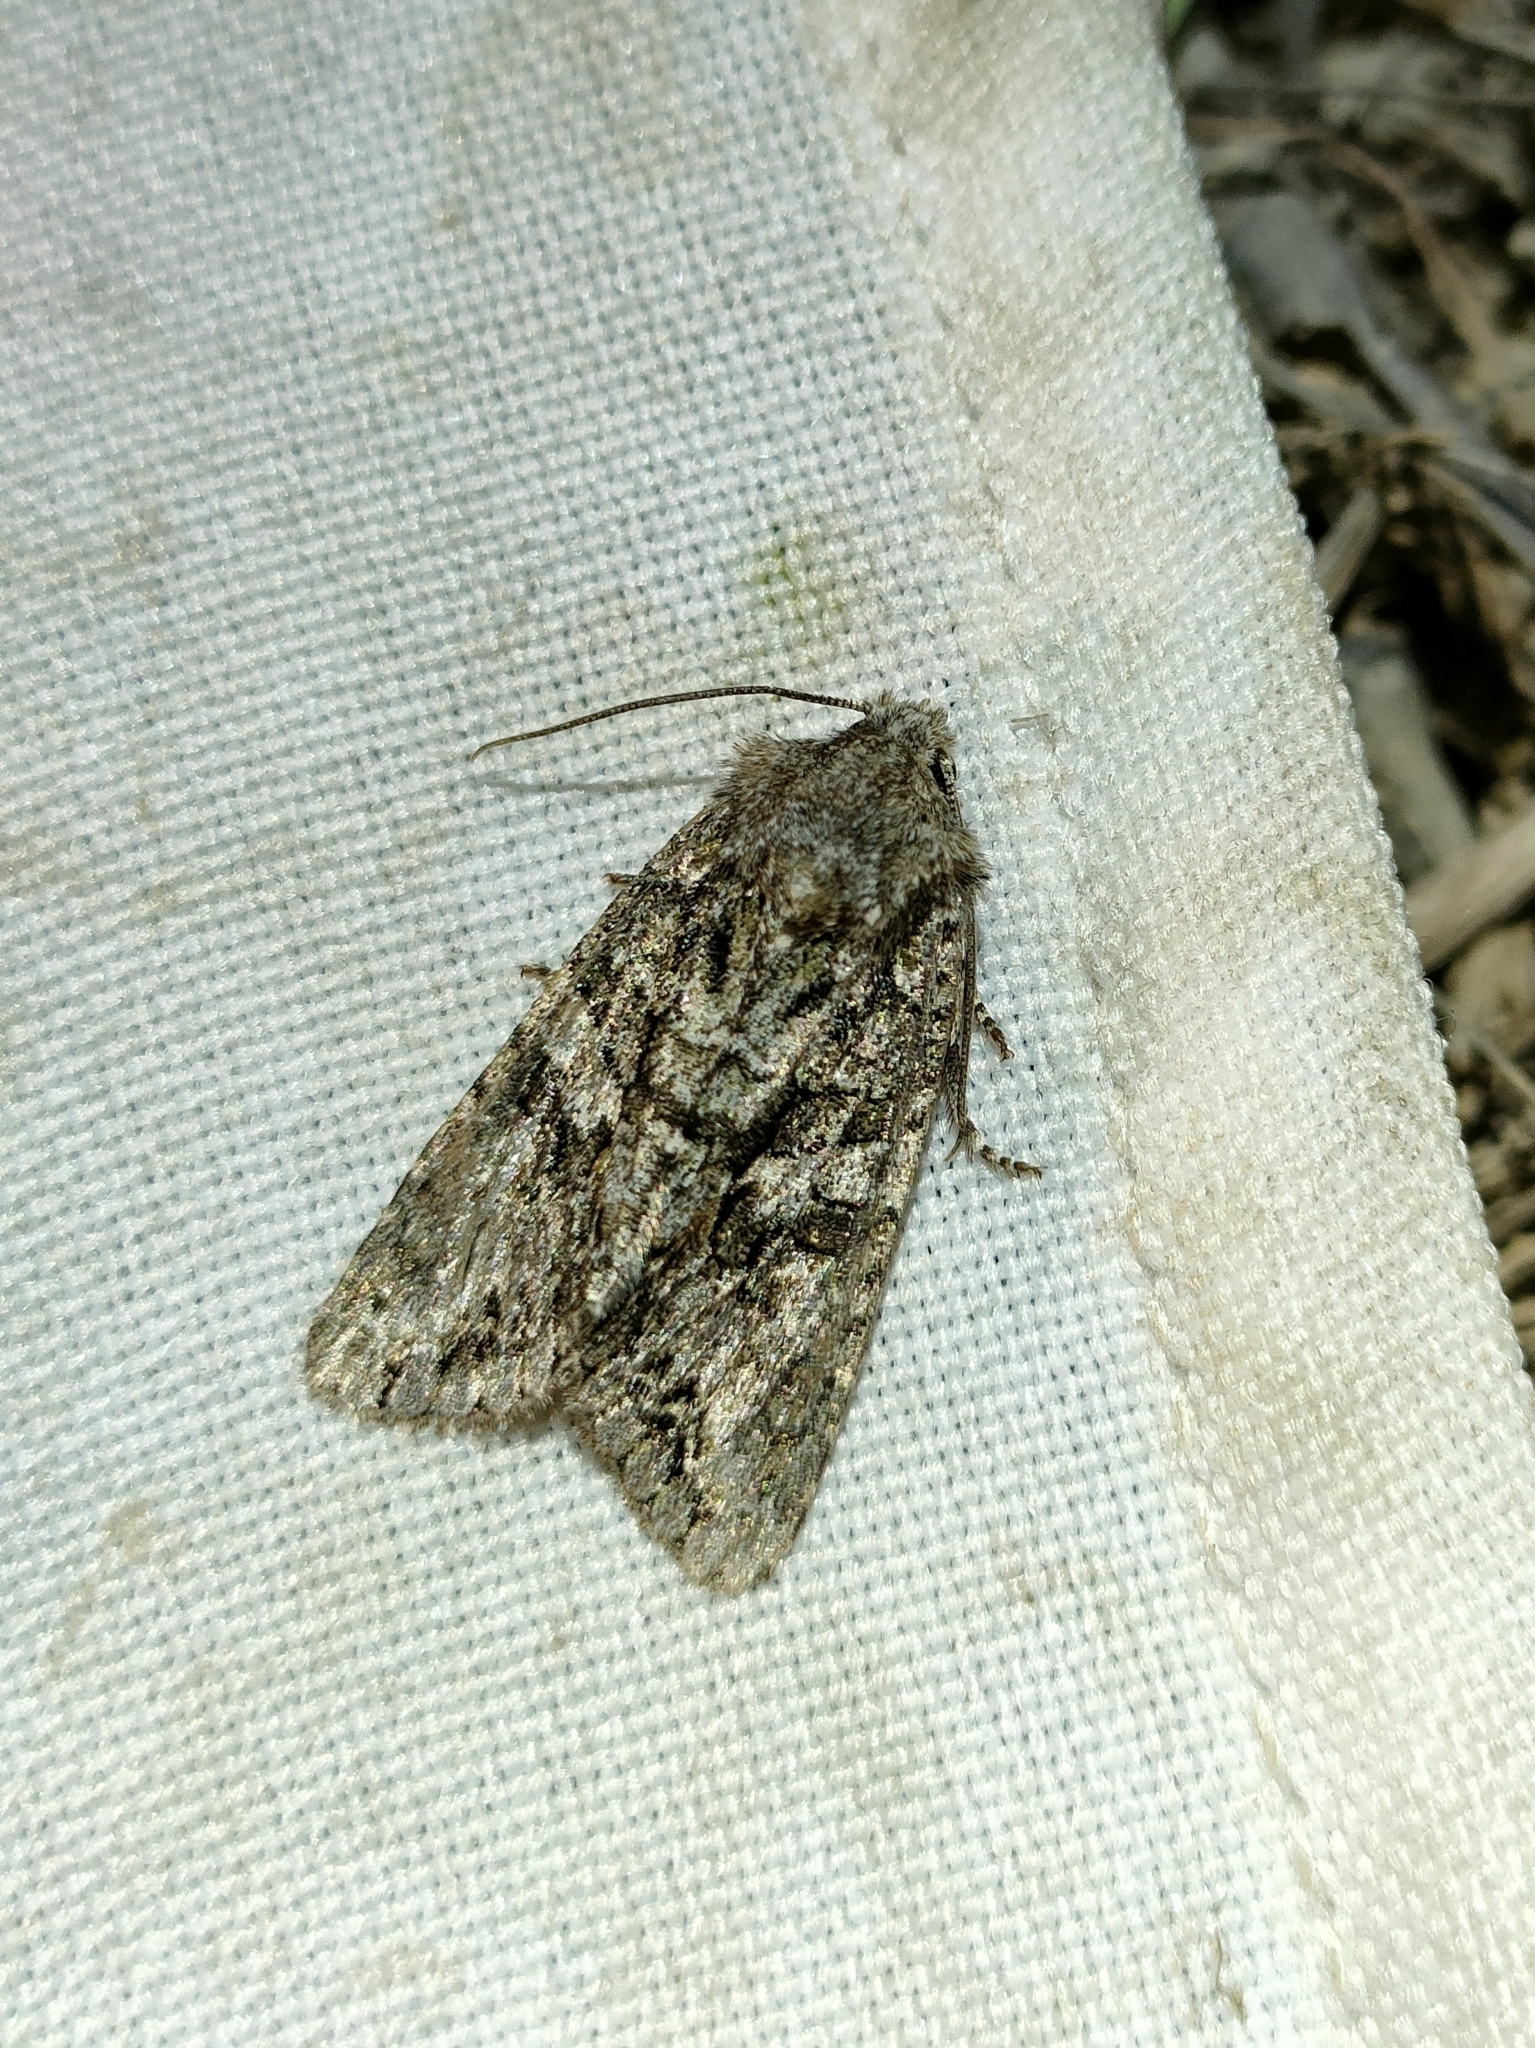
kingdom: Animalia
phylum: Arthropoda
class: Insecta
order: Lepidoptera
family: Noctuidae
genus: Dryobotodes
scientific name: Dryobotodes eremita
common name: Brindled green
